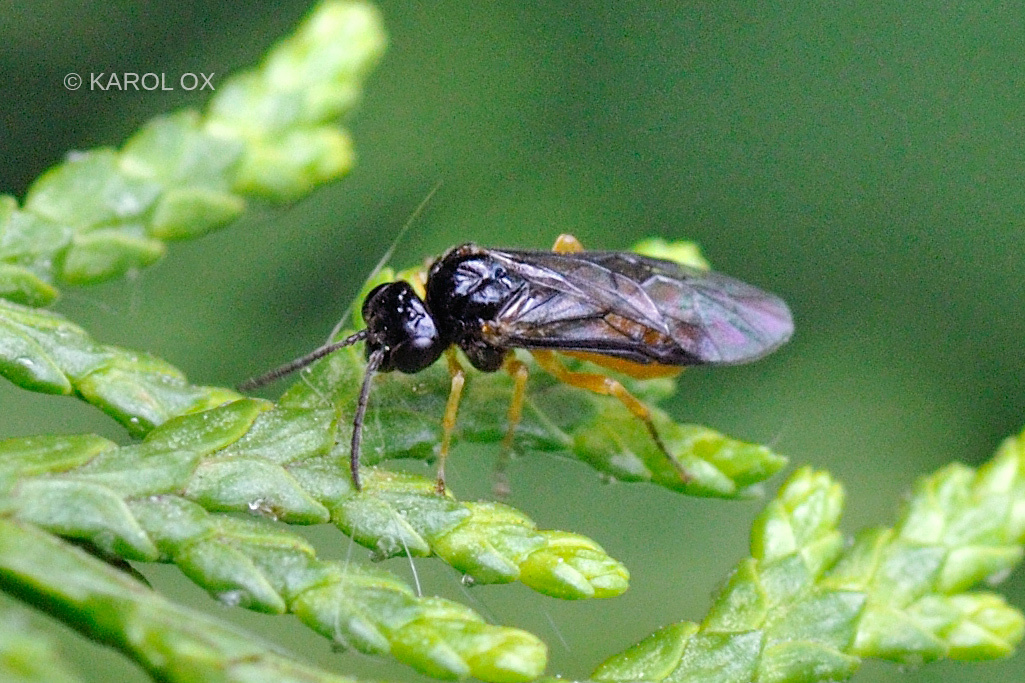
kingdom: Animalia
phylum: Arthropoda
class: Insecta
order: Hymenoptera
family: Tenthredinidae
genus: Halidamia
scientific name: Halidamia affinis
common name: Wasp
